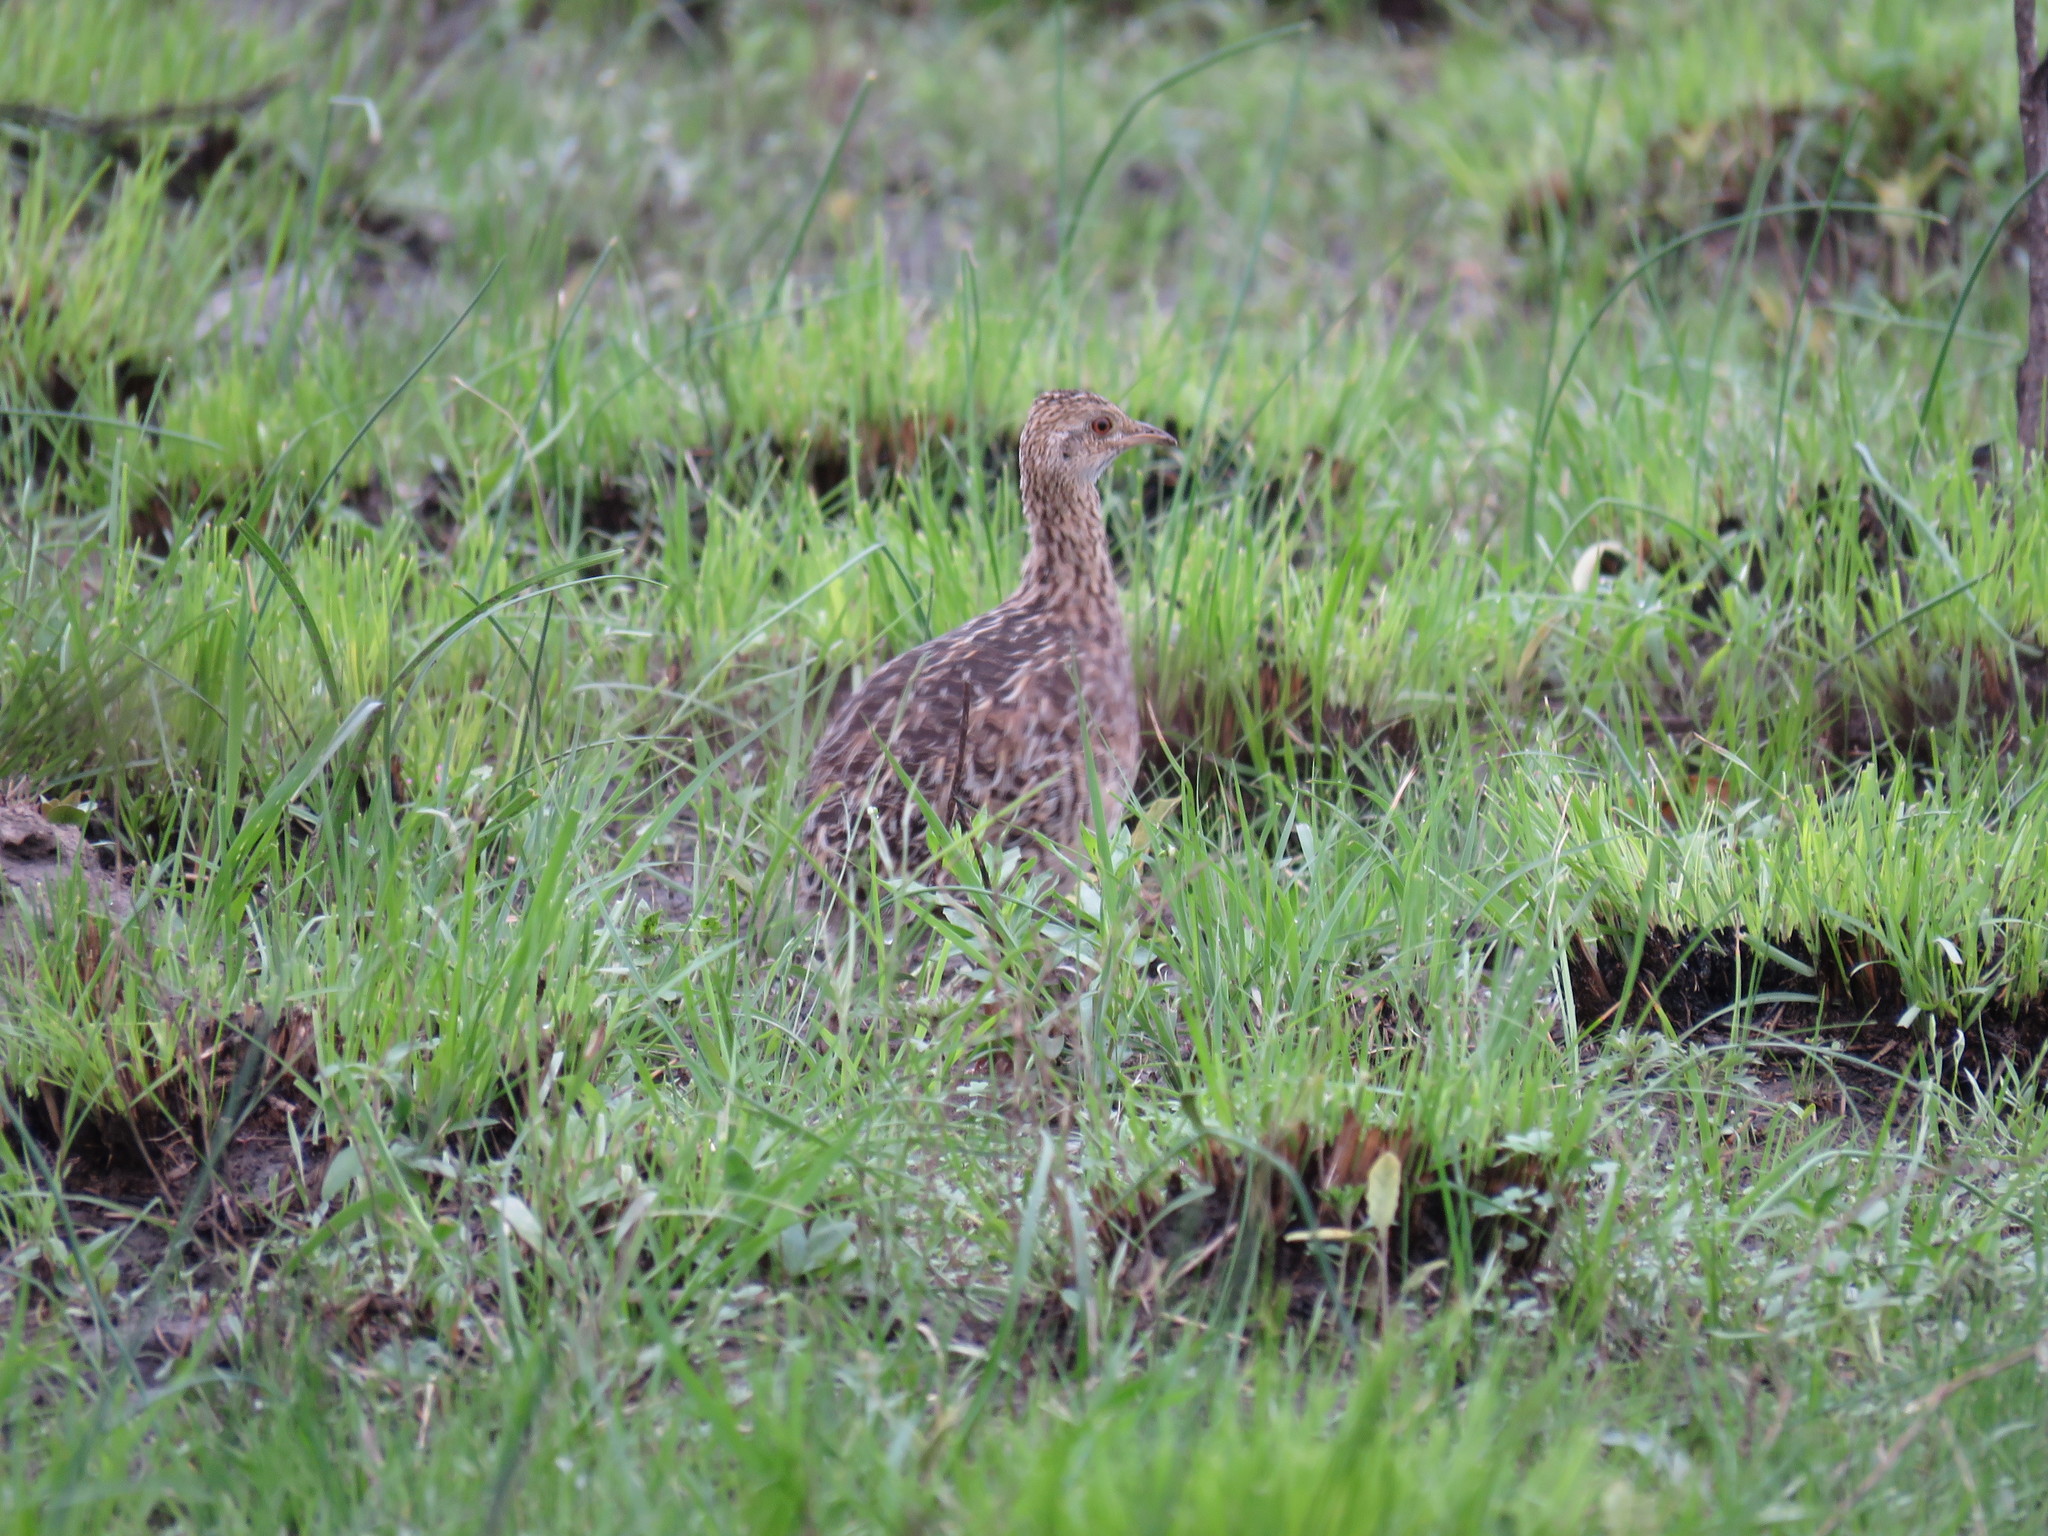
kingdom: Animalia
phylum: Chordata
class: Aves
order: Tinamiformes
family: Tinamidae
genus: Nothura
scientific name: Nothura maculosa
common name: Spotted nothura
